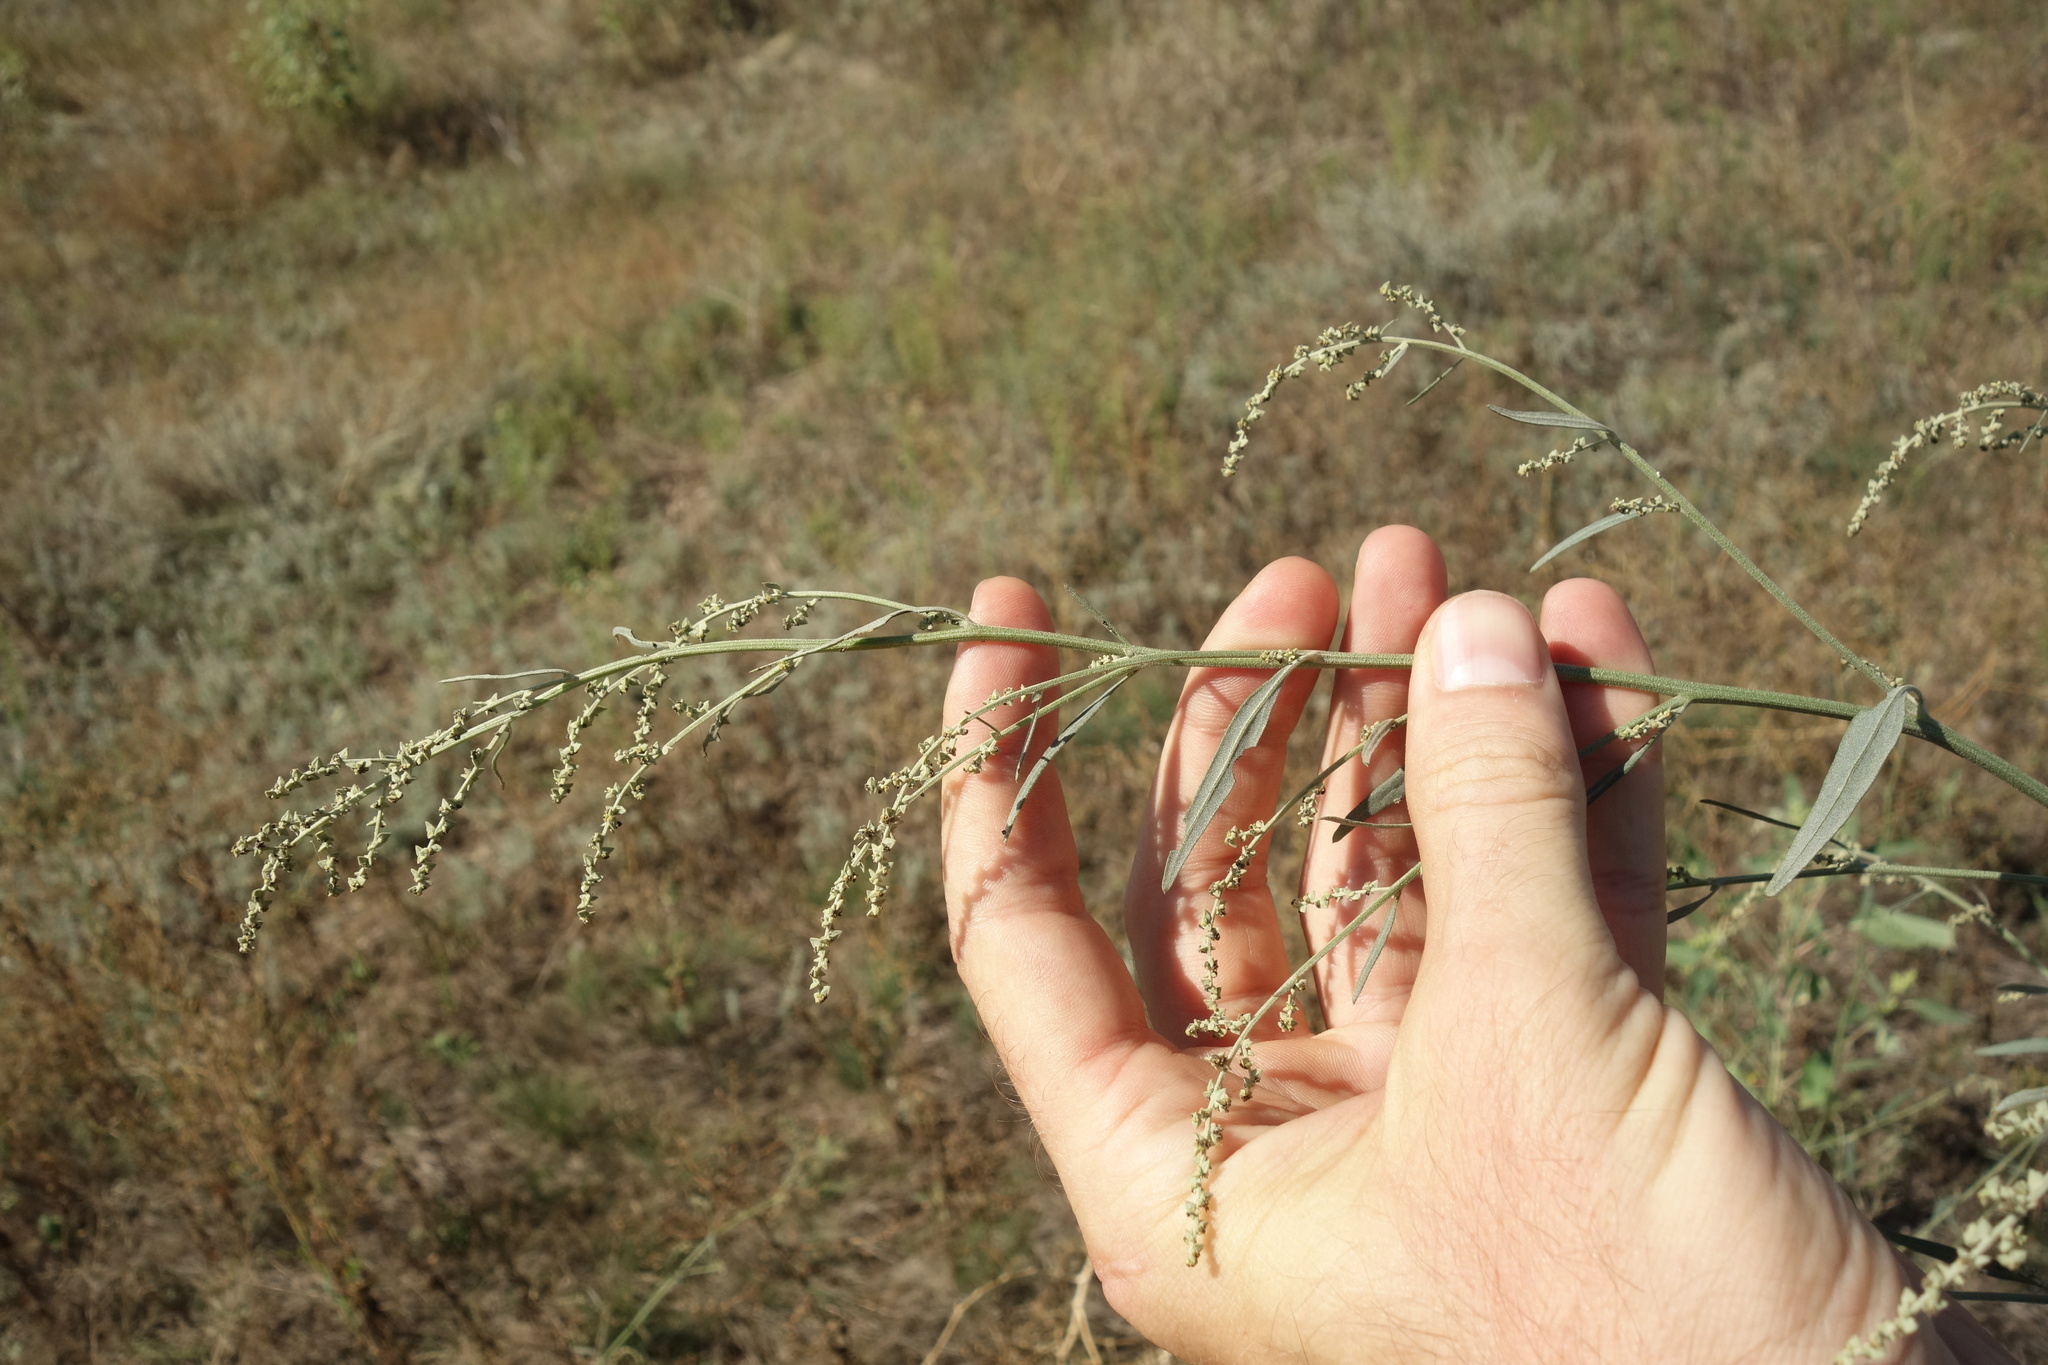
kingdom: Plantae
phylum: Tracheophyta
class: Magnoliopsida
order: Caryophyllales
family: Amaranthaceae
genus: Atriplex
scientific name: Atriplex oblongifolia
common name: Oblongleaf orache
